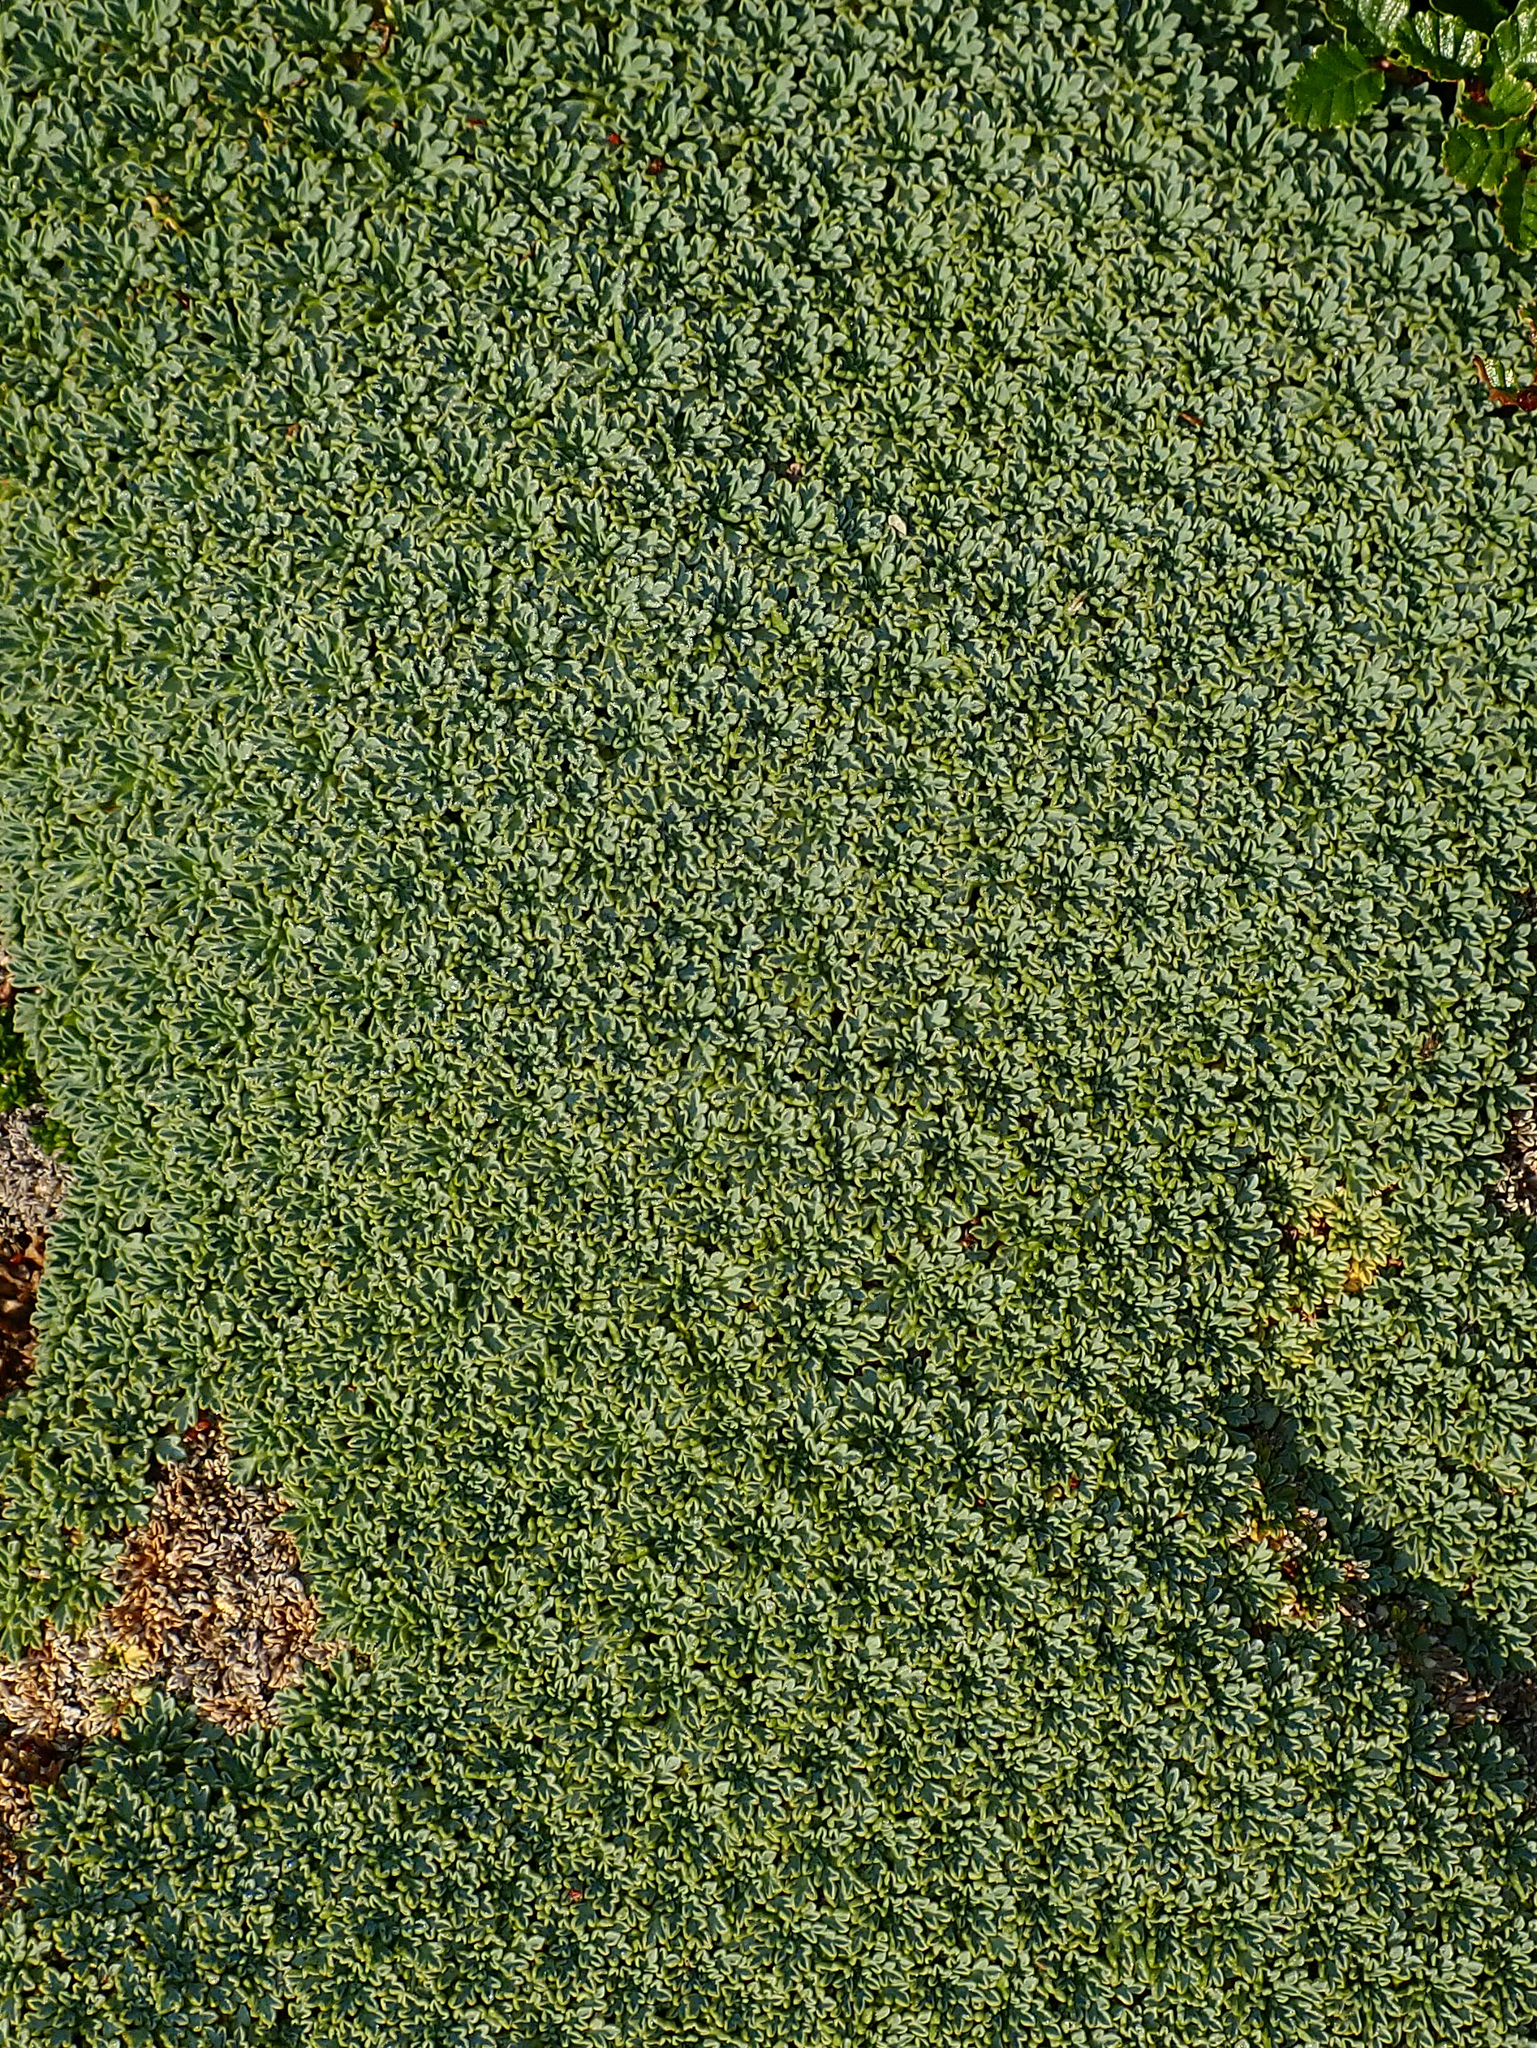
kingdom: Plantae
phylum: Tracheophyta
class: Magnoliopsida
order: Apiales
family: Apiaceae
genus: Bolax
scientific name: Bolax gummifera
